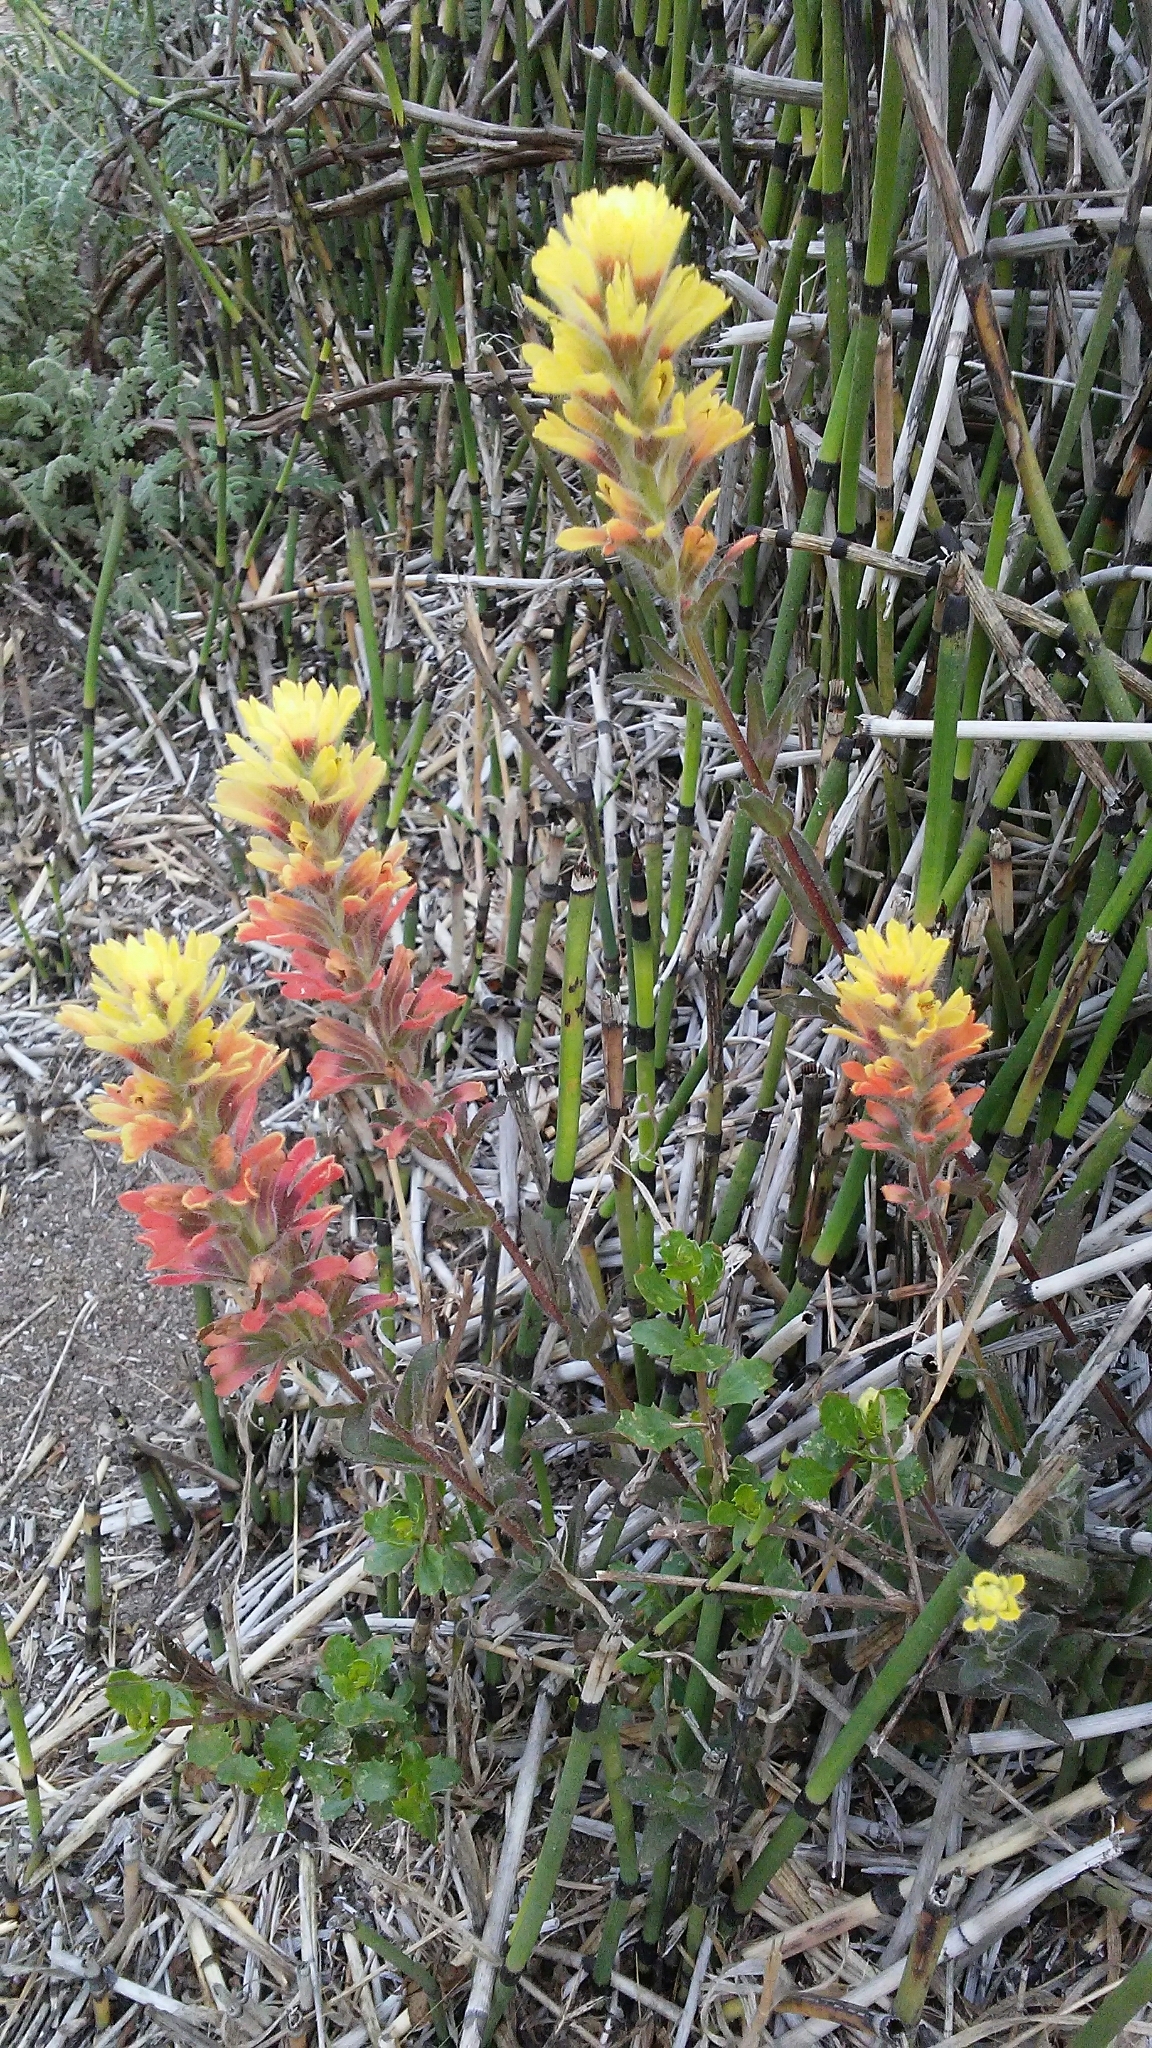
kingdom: Plantae
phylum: Tracheophyta
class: Magnoliopsida
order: Lamiales
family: Orobanchaceae
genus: Castilleja
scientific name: Castilleja affinis
